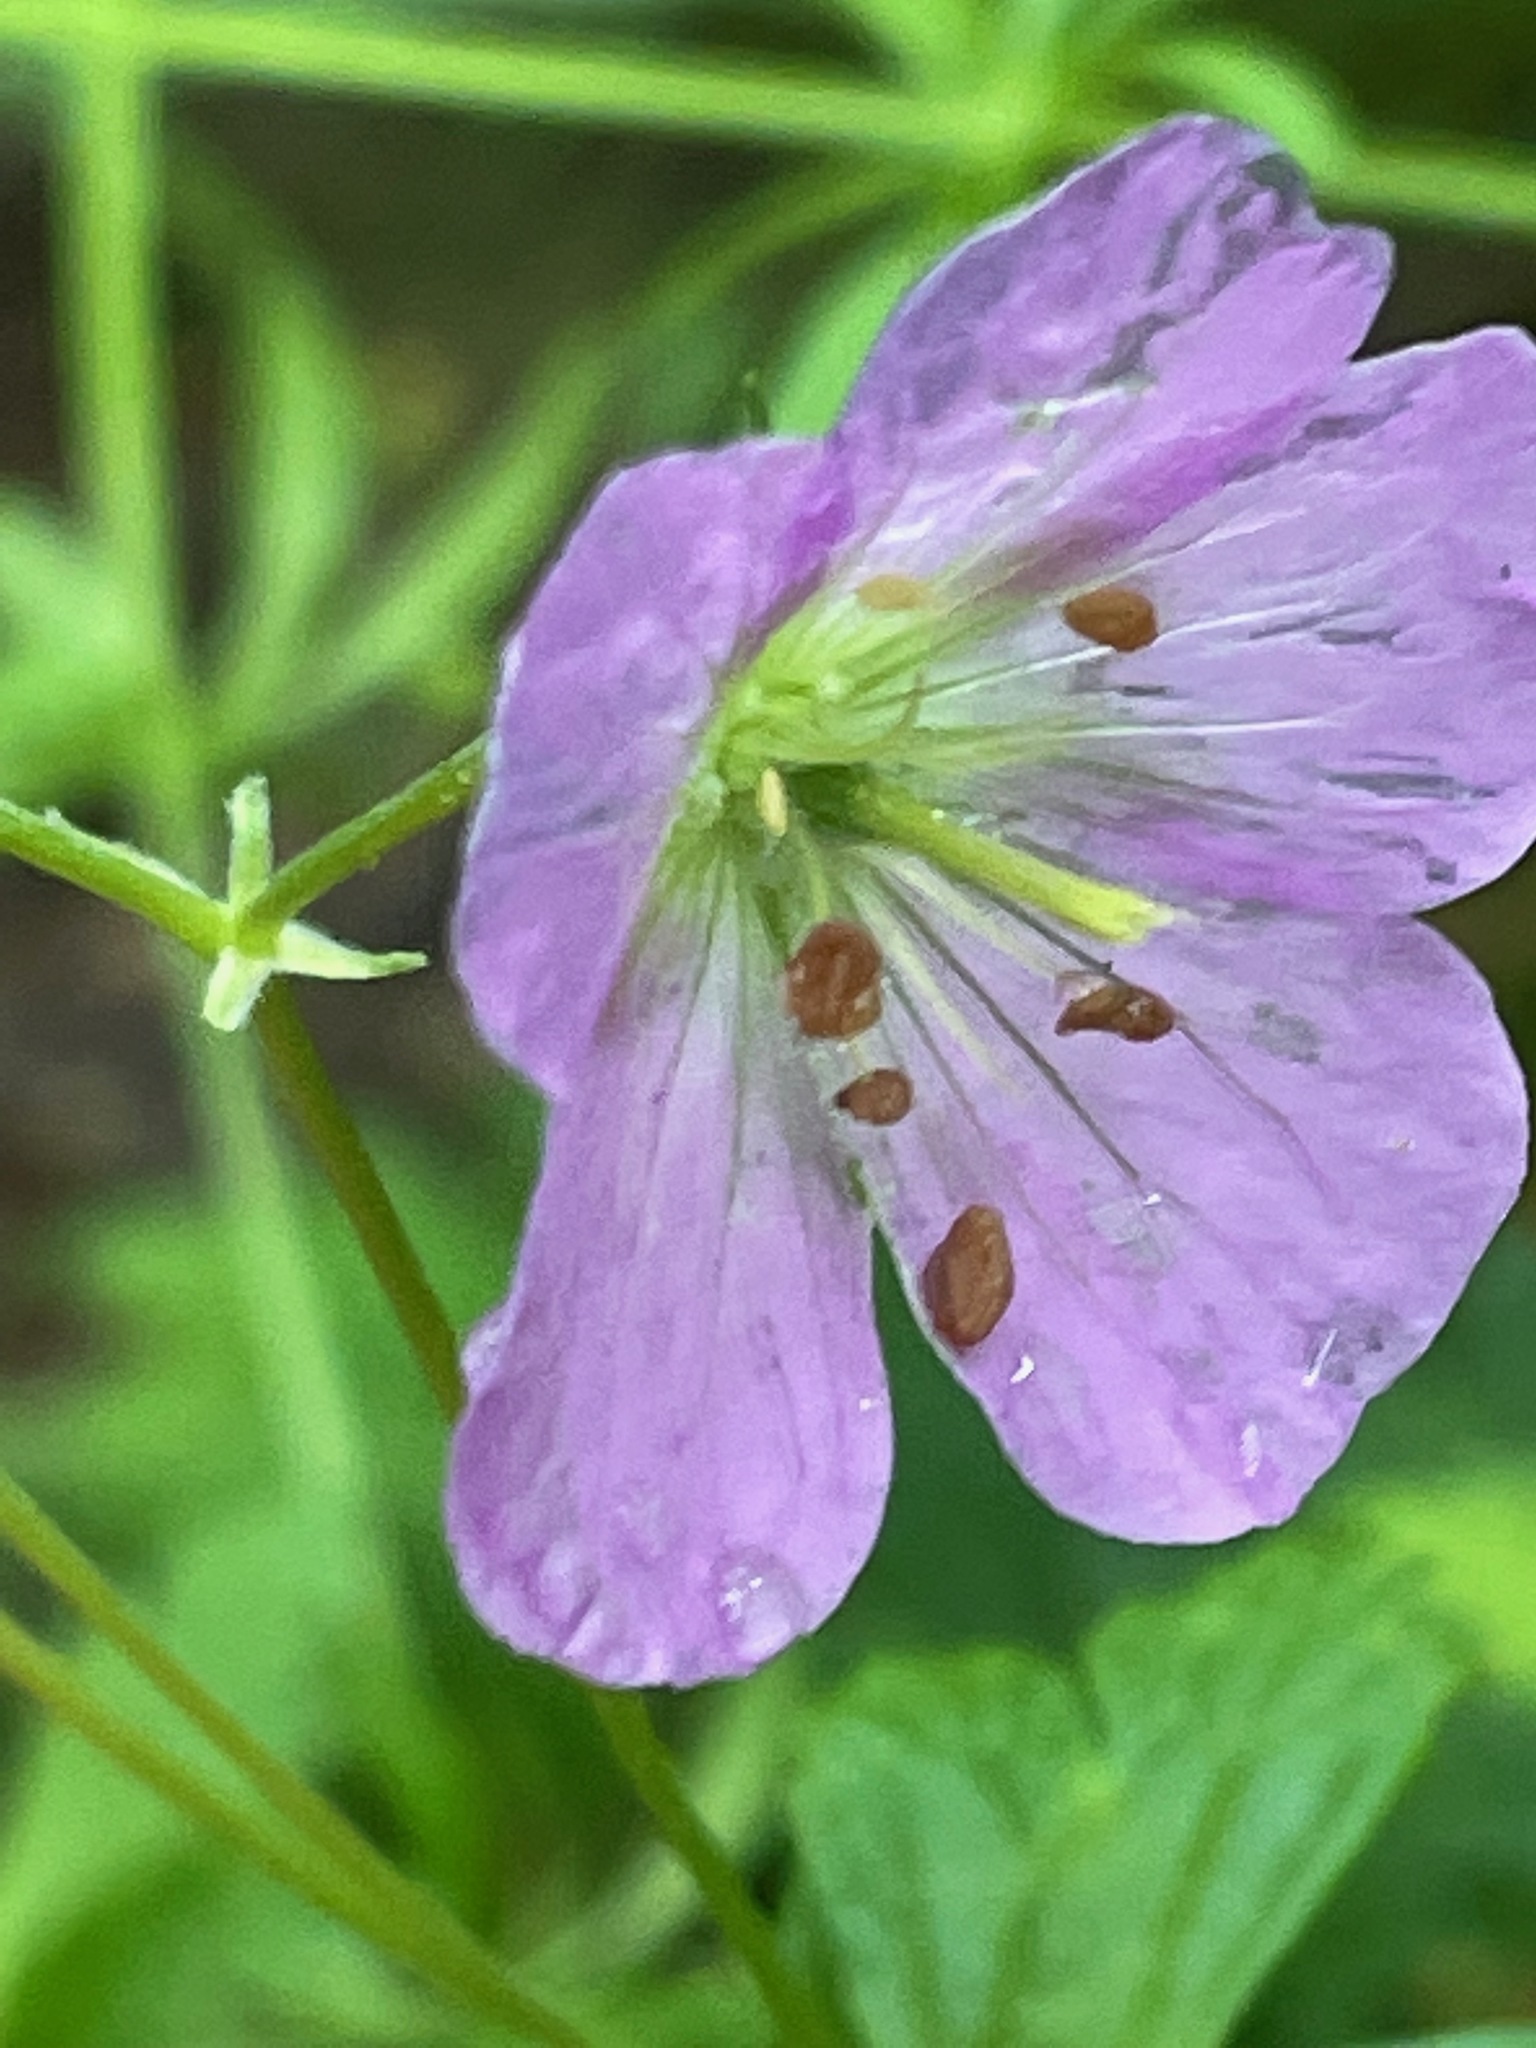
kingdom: Plantae
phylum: Tracheophyta
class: Magnoliopsida
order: Geraniales
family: Geraniaceae
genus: Geranium
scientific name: Geranium maculatum
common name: Spotted geranium
